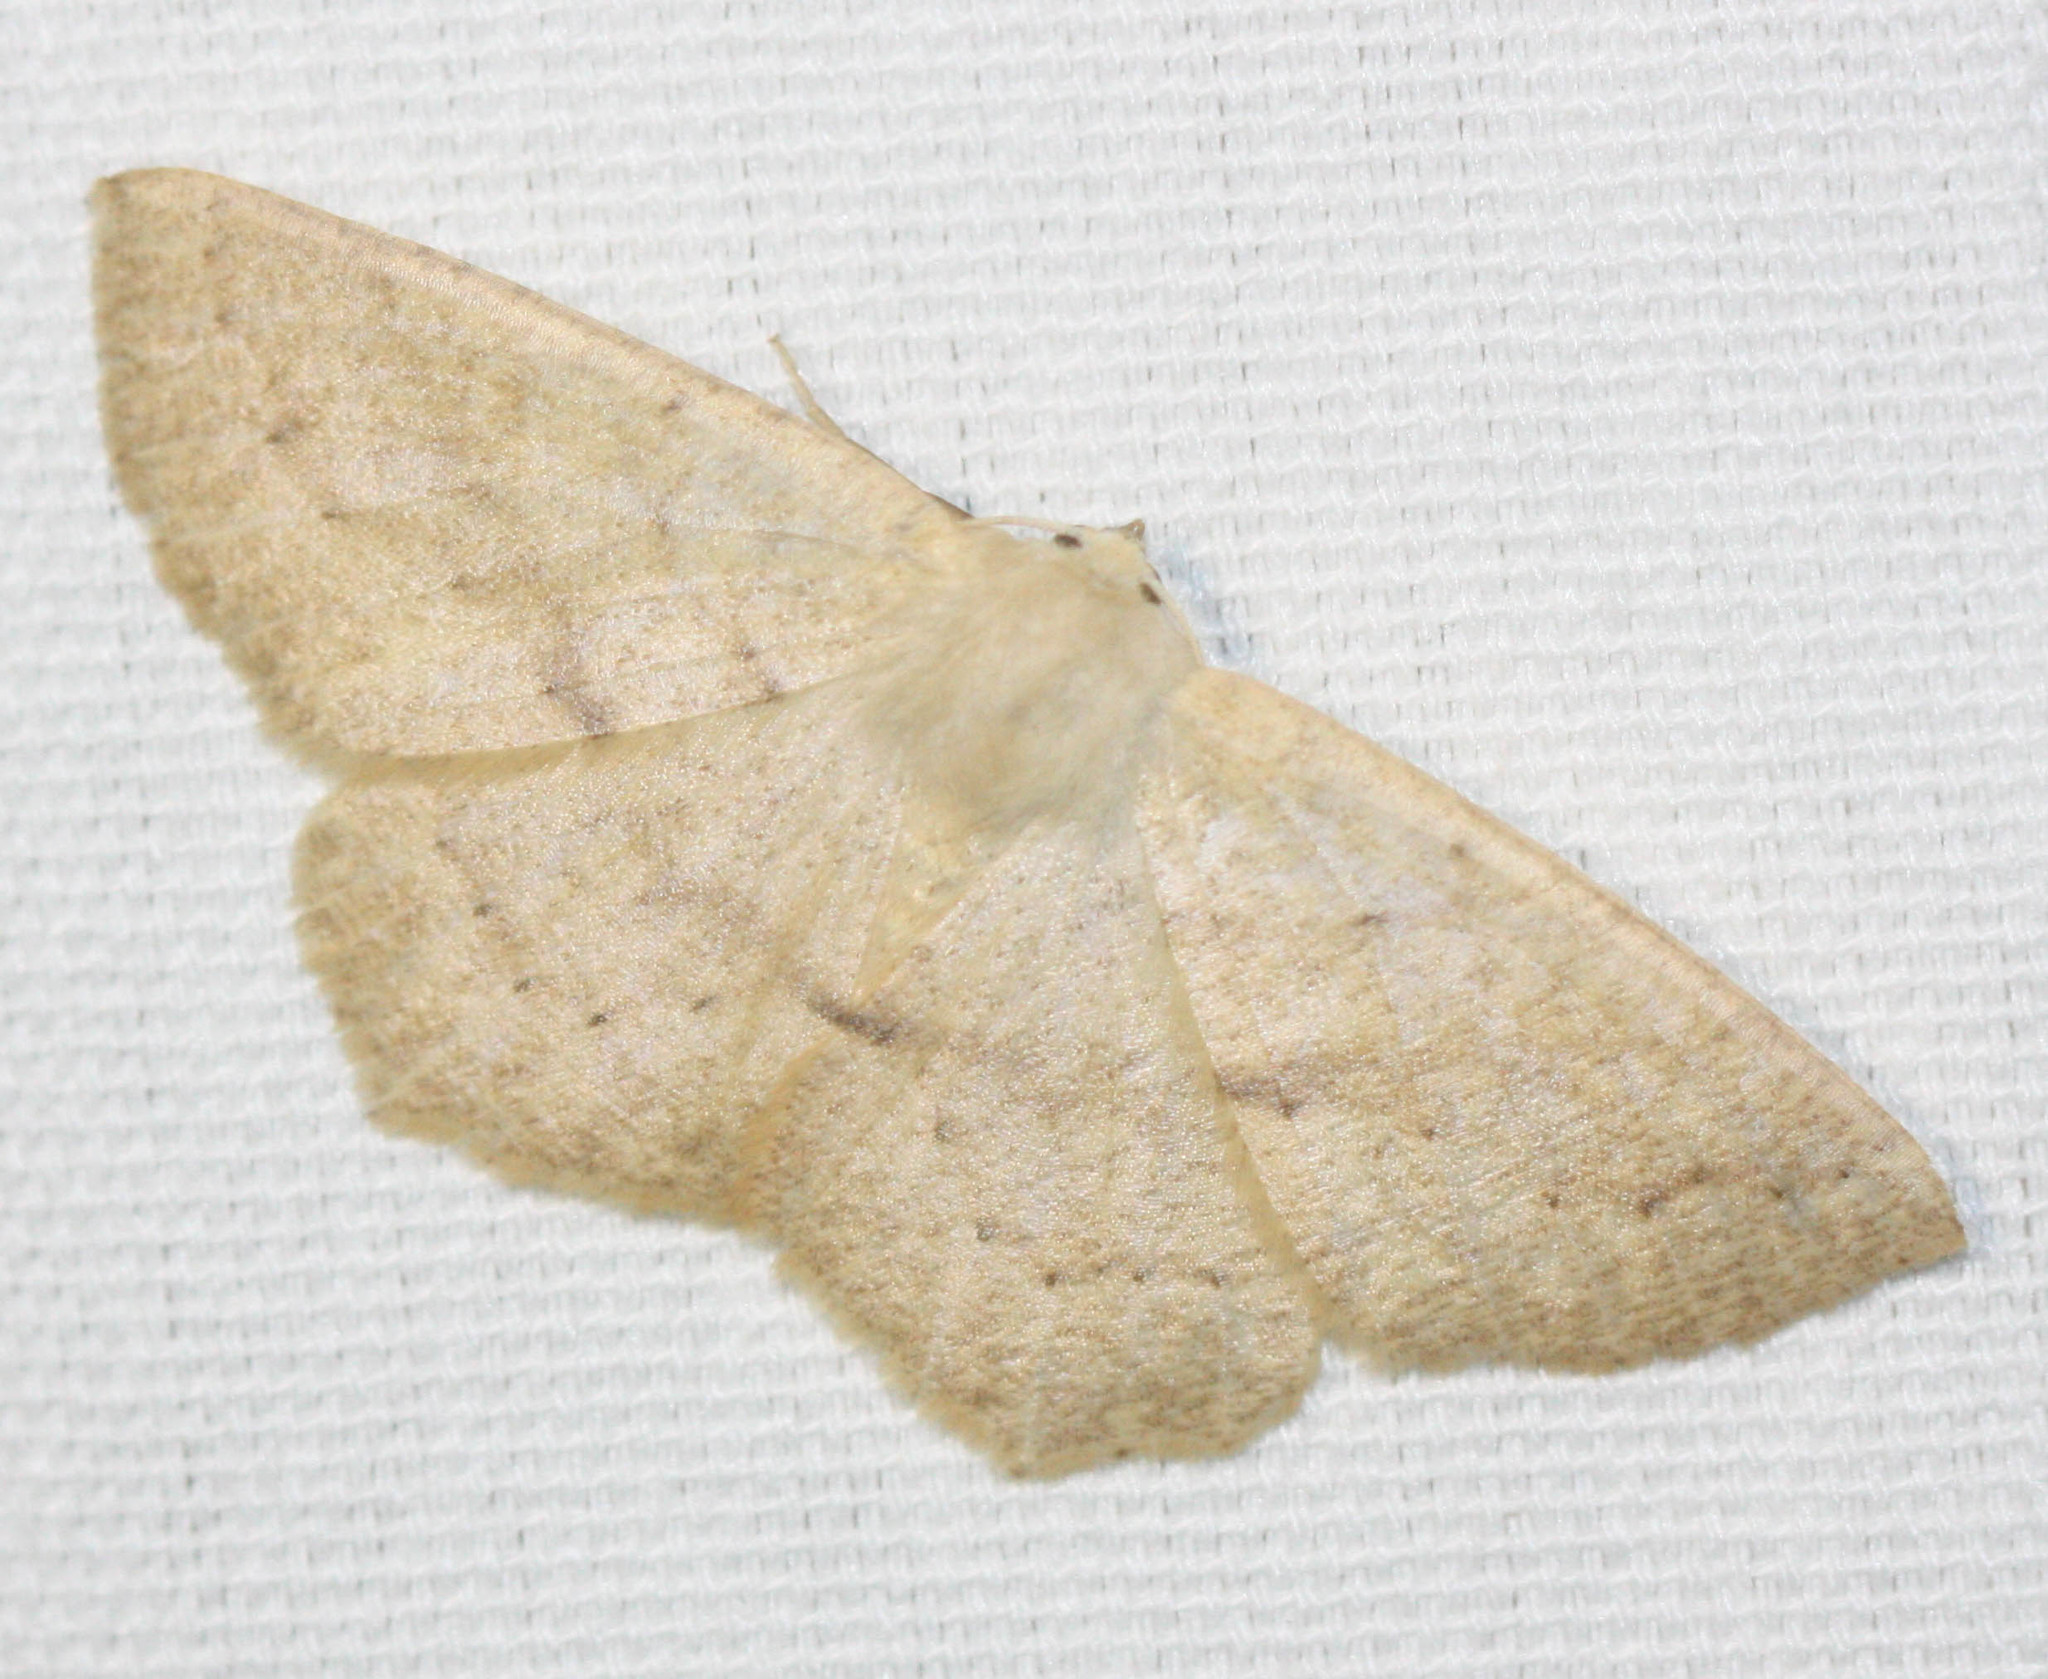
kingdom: Animalia
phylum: Arthropoda
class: Insecta
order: Lepidoptera
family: Geometridae
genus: Sabulodes
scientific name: Sabulodes aegrotata
